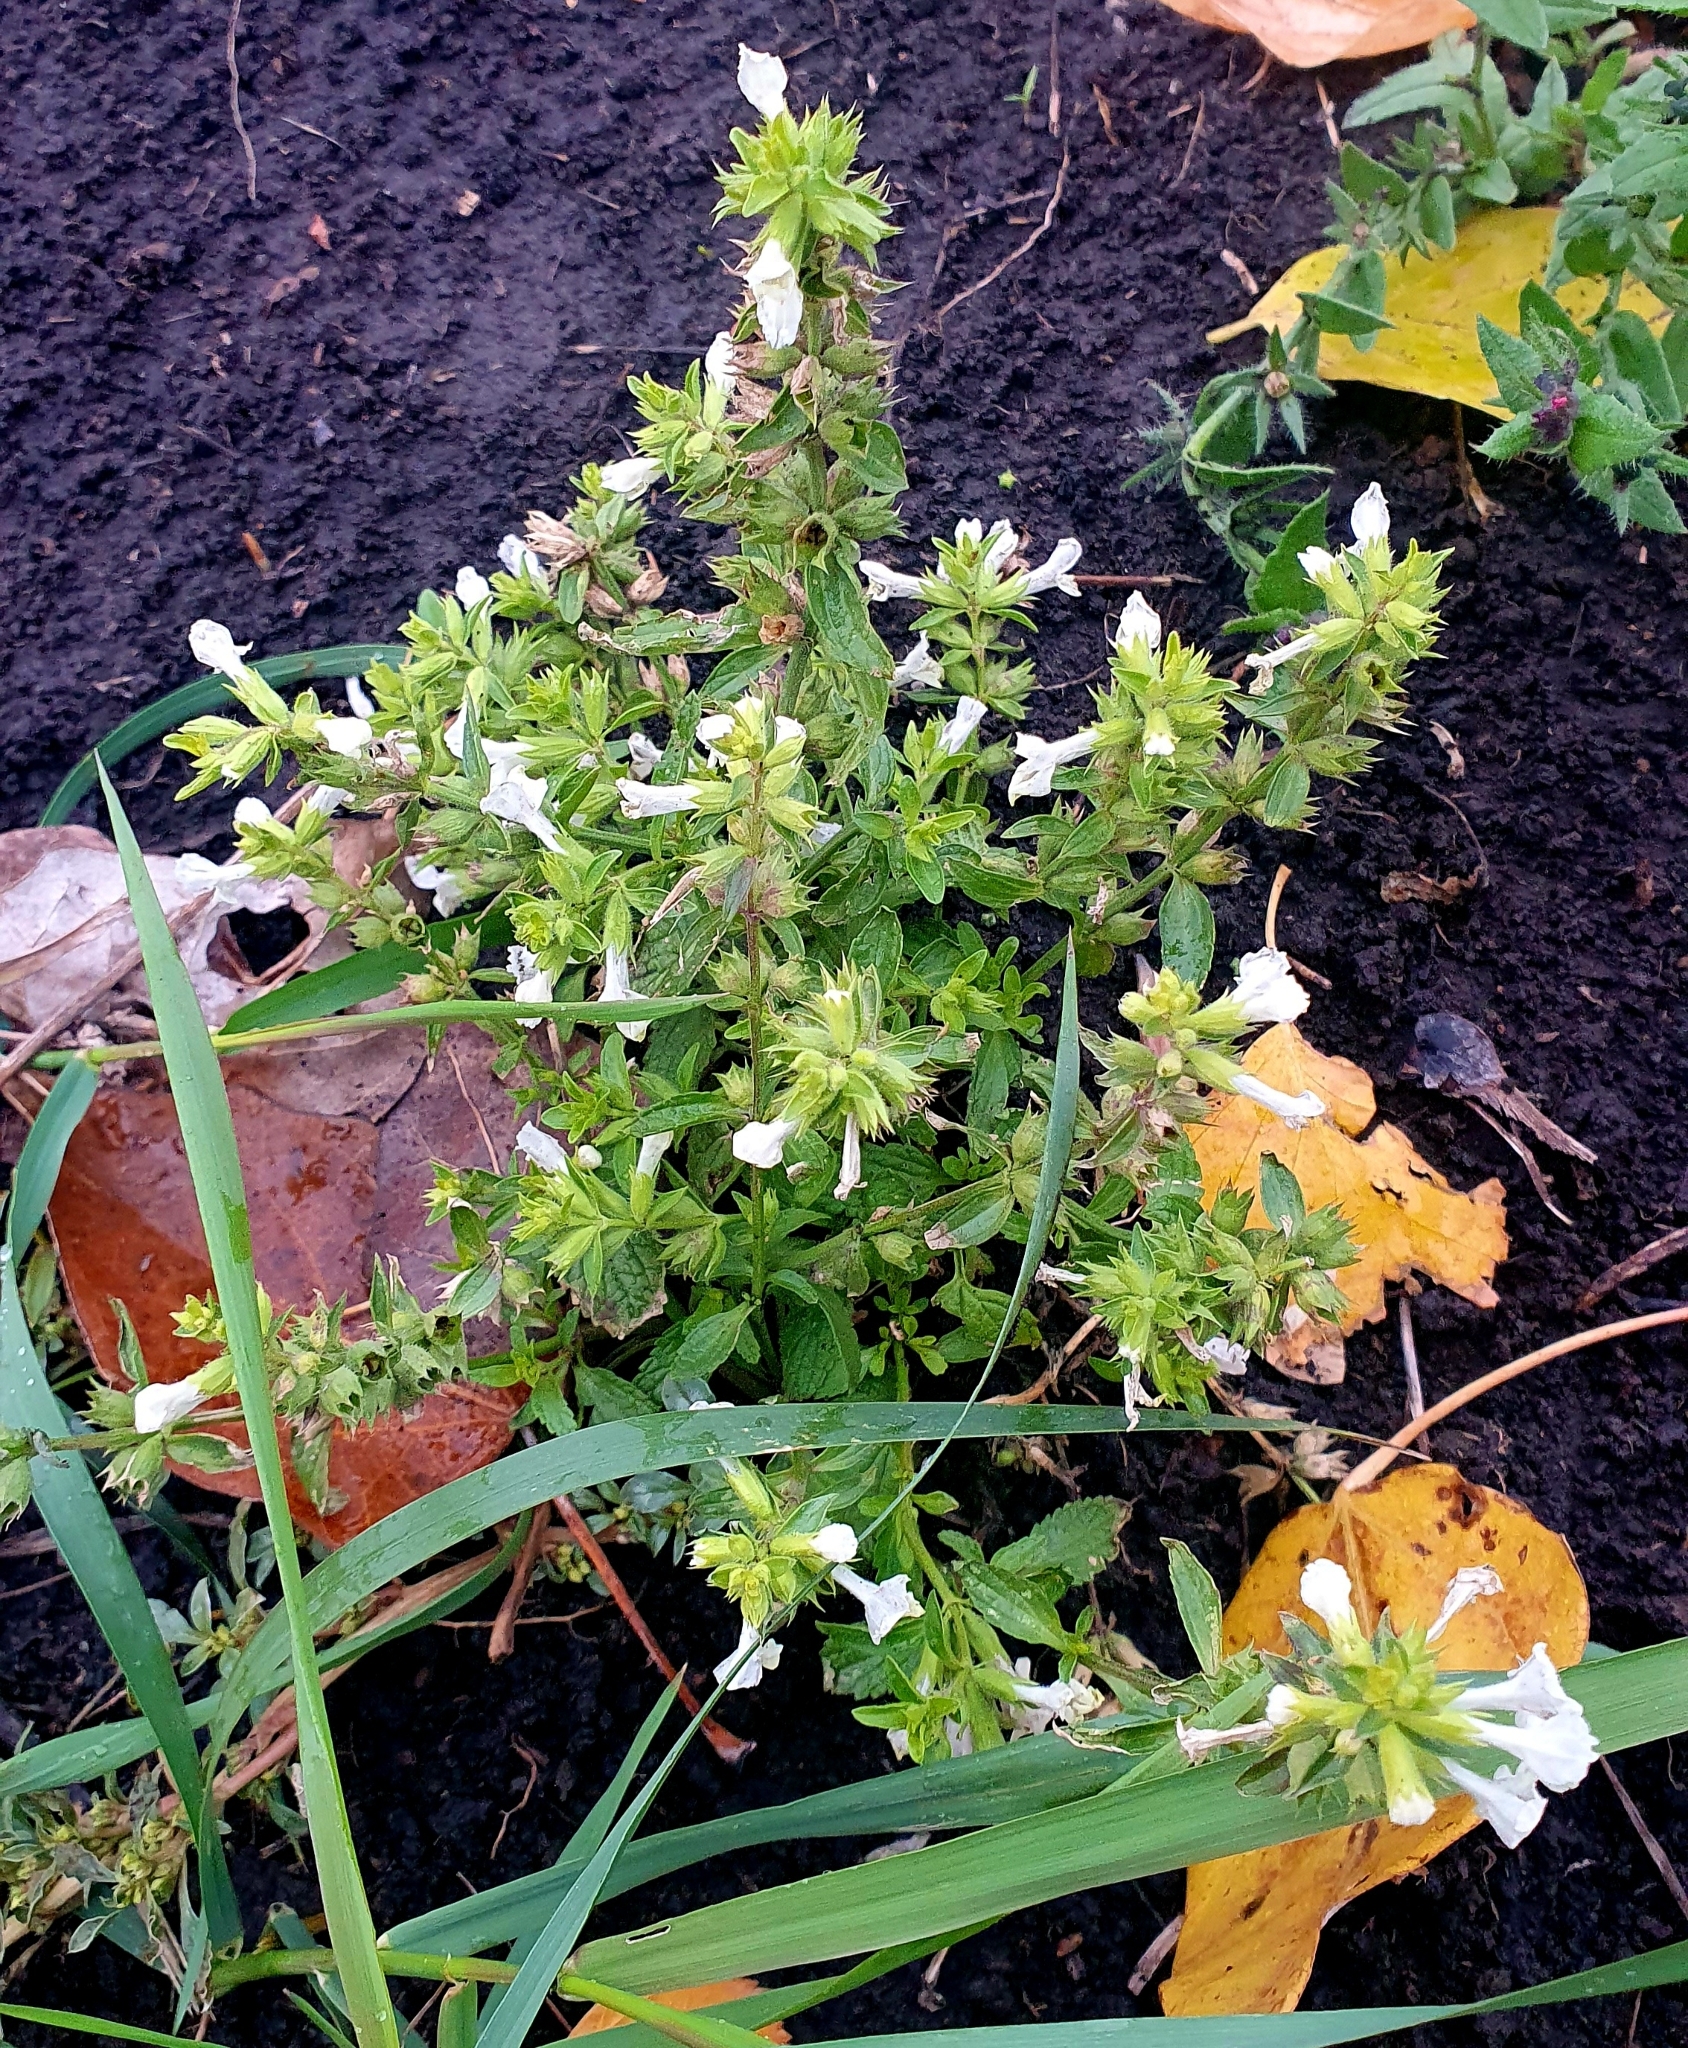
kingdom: Plantae
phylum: Tracheophyta
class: Magnoliopsida
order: Lamiales
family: Lamiaceae
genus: Stachys
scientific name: Stachys annua
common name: Annual yellow-woundwort
